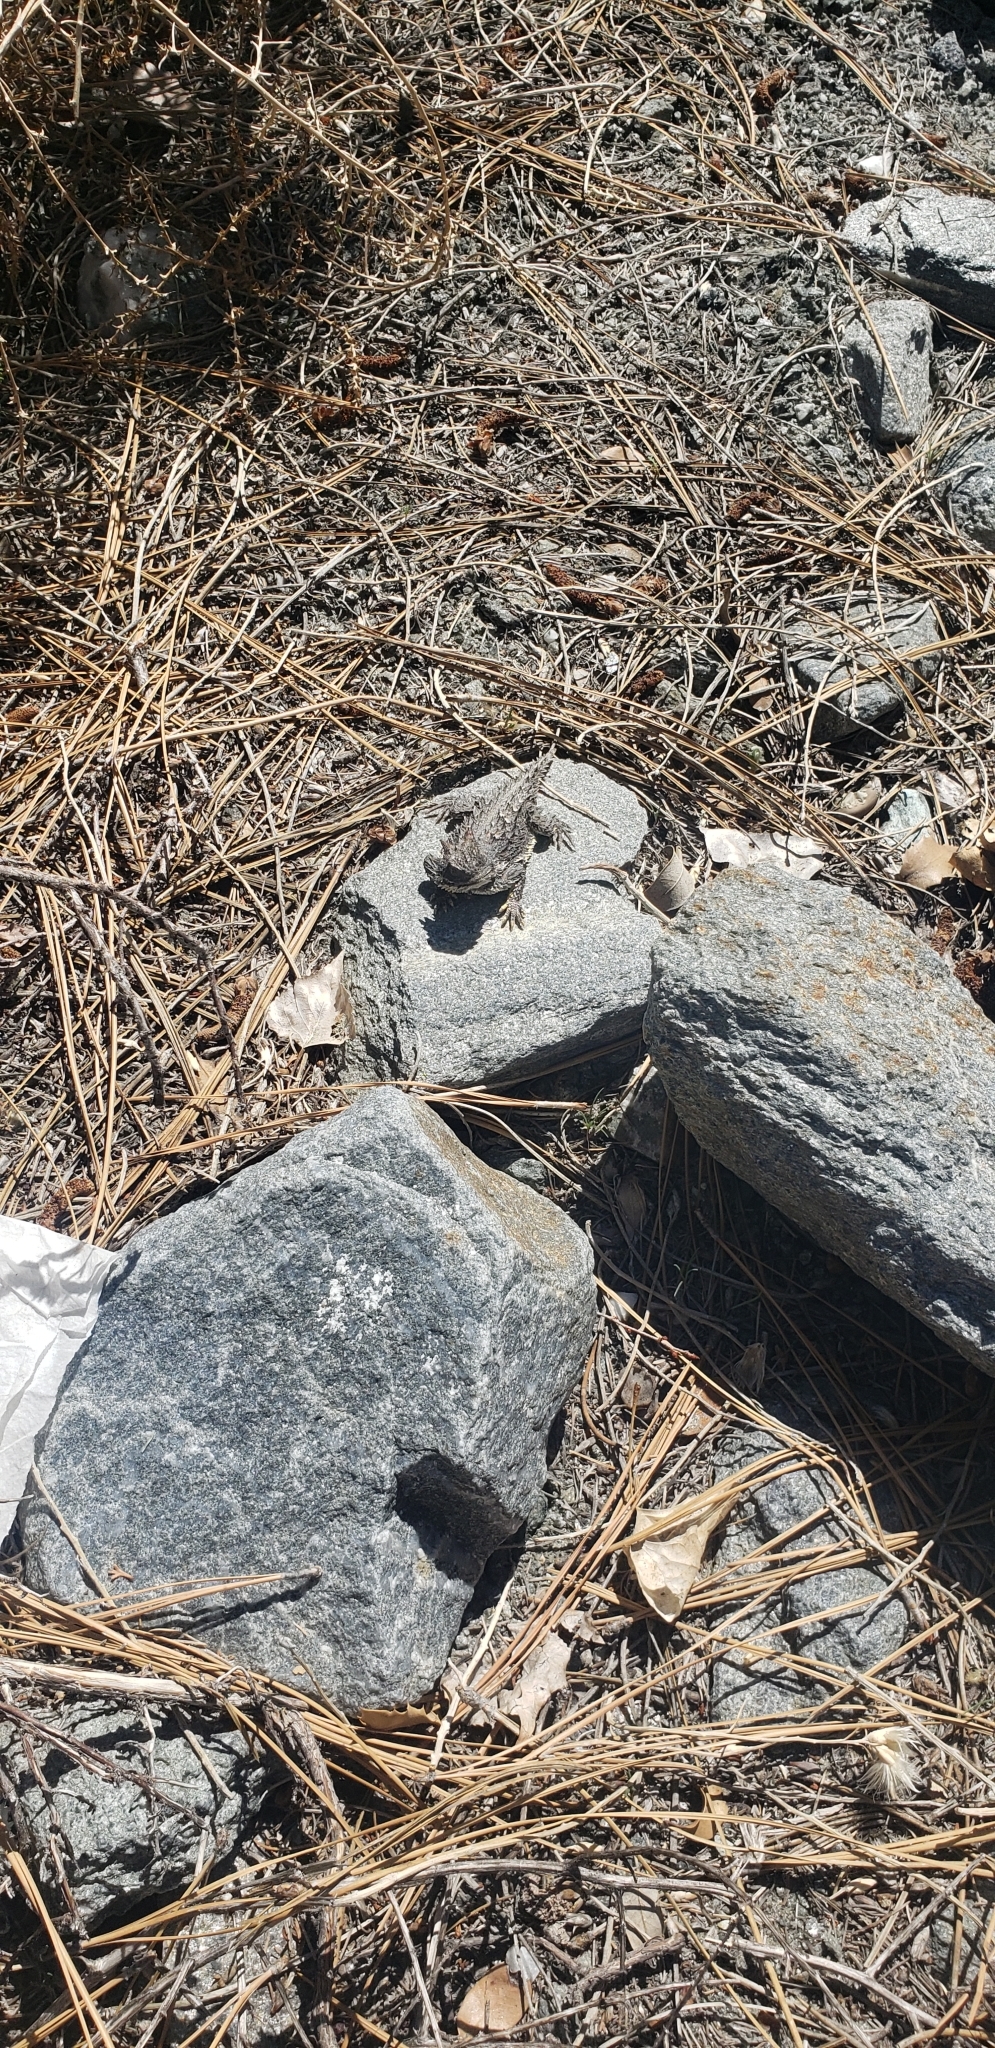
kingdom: Animalia
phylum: Chordata
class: Squamata
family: Phrynosomatidae
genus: Phrynosoma
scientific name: Phrynosoma blainvillii
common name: San diego horned lizard
